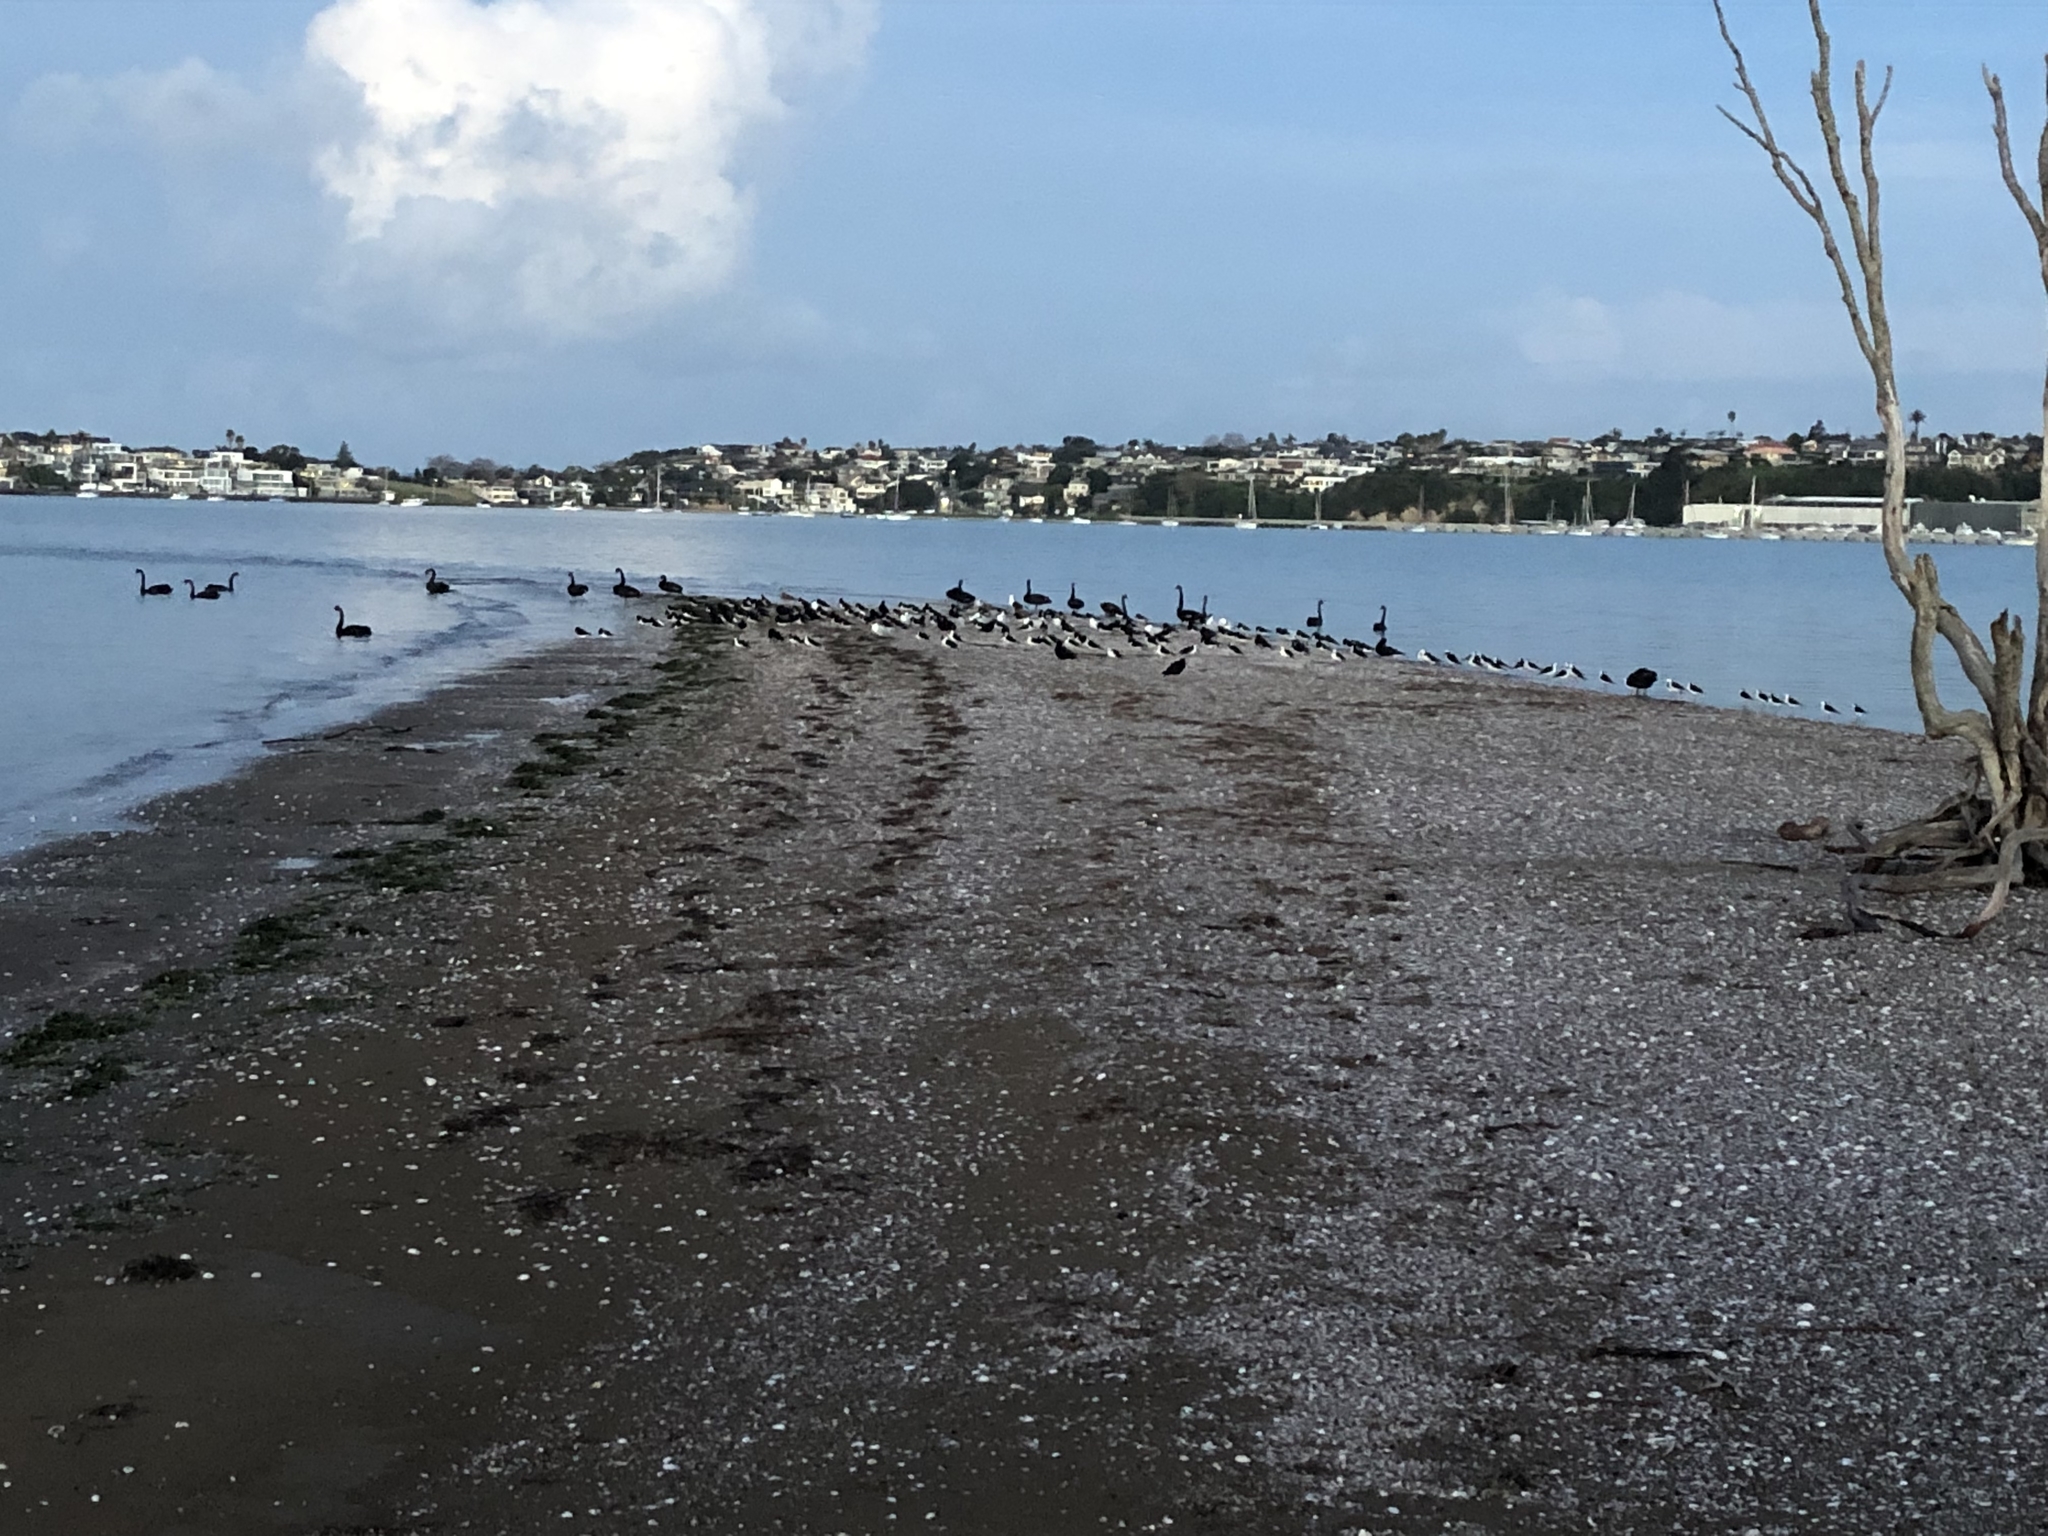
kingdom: Animalia
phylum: Chordata
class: Aves
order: Anseriformes
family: Anatidae
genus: Cygnus
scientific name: Cygnus atratus
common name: Black swan
